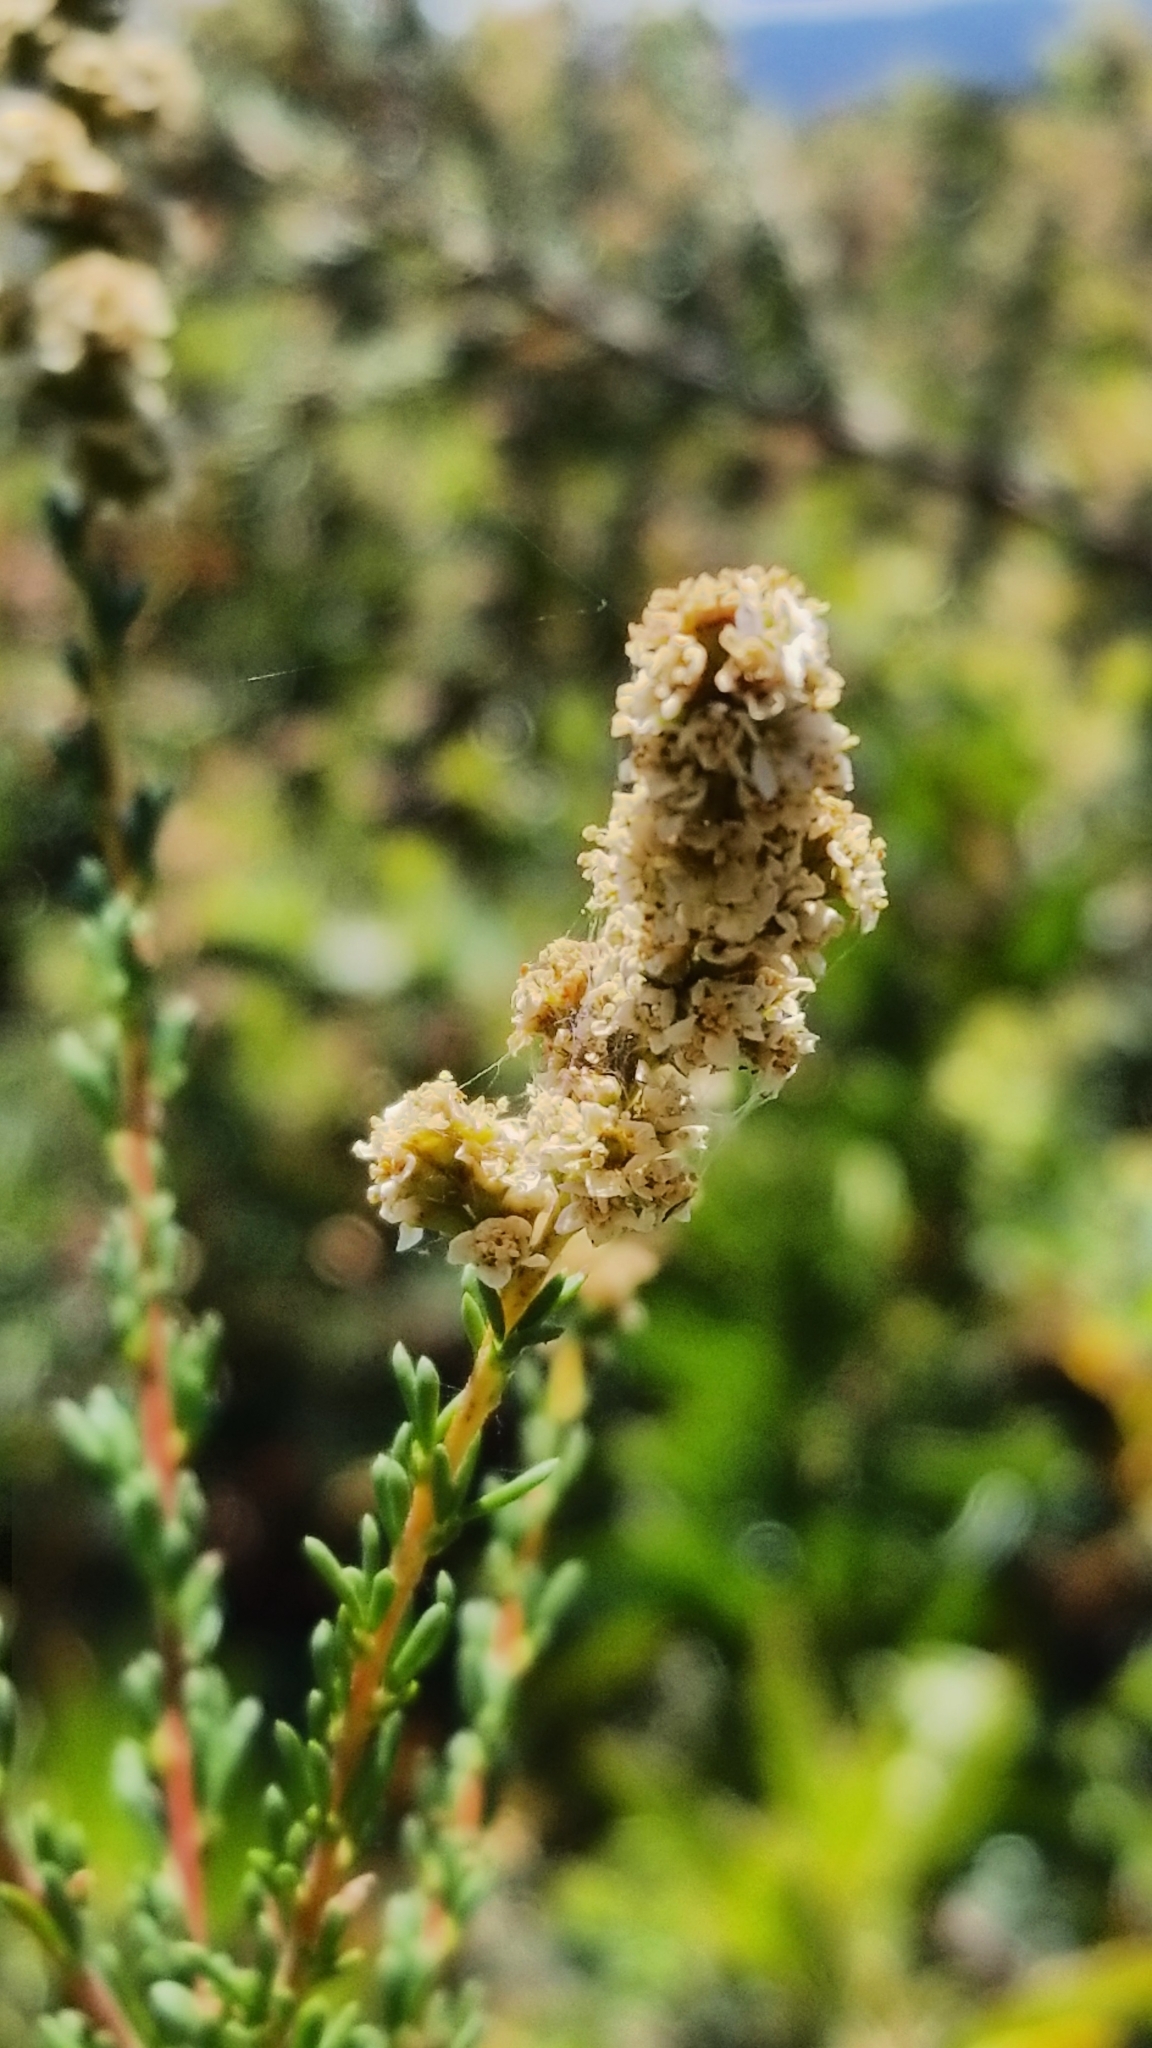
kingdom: Plantae
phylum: Tracheophyta
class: Magnoliopsida
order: Rosales
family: Rosaceae
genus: Adenostoma
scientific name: Adenostoma fasciculatum
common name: Chamise
